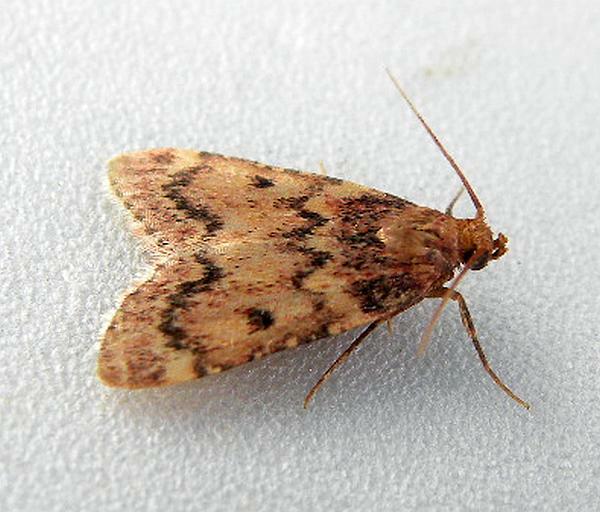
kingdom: Animalia
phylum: Arthropoda
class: Insecta
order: Lepidoptera
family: Pyralidae
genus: Aglossa
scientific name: Aglossa disciferalis
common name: Pink-masked pyralid moth
